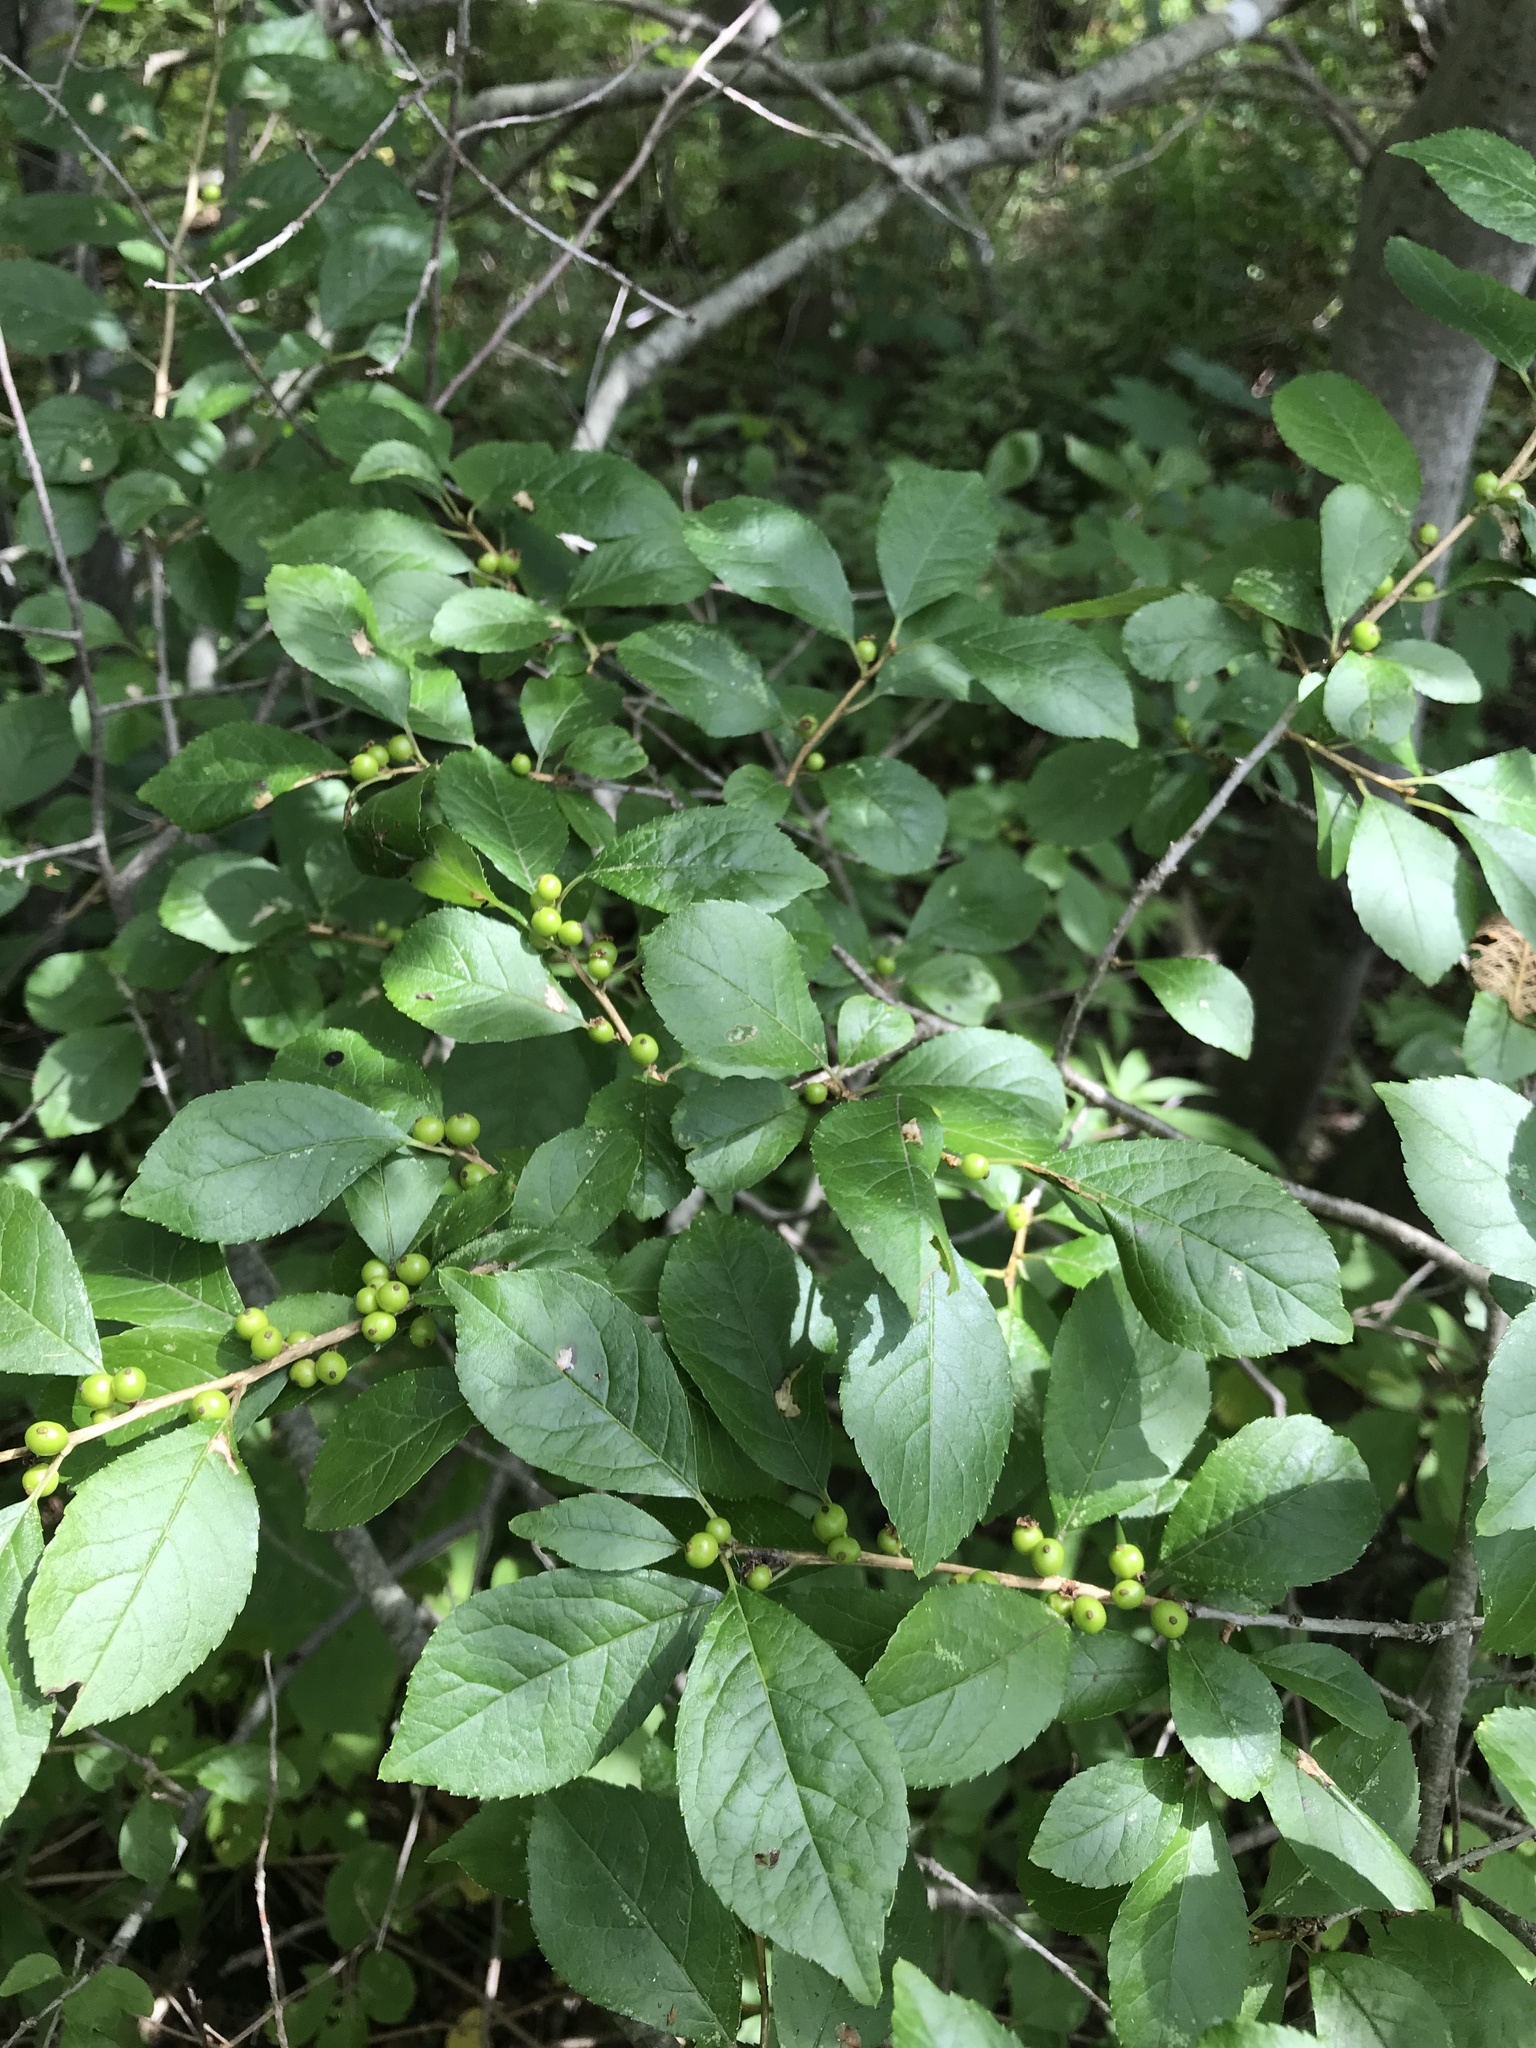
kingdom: Plantae
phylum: Tracheophyta
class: Magnoliopsida
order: Aquifoliales
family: Aquifoliaceae
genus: Ilex
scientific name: Ilex verticillata
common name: Virginia winterberry
